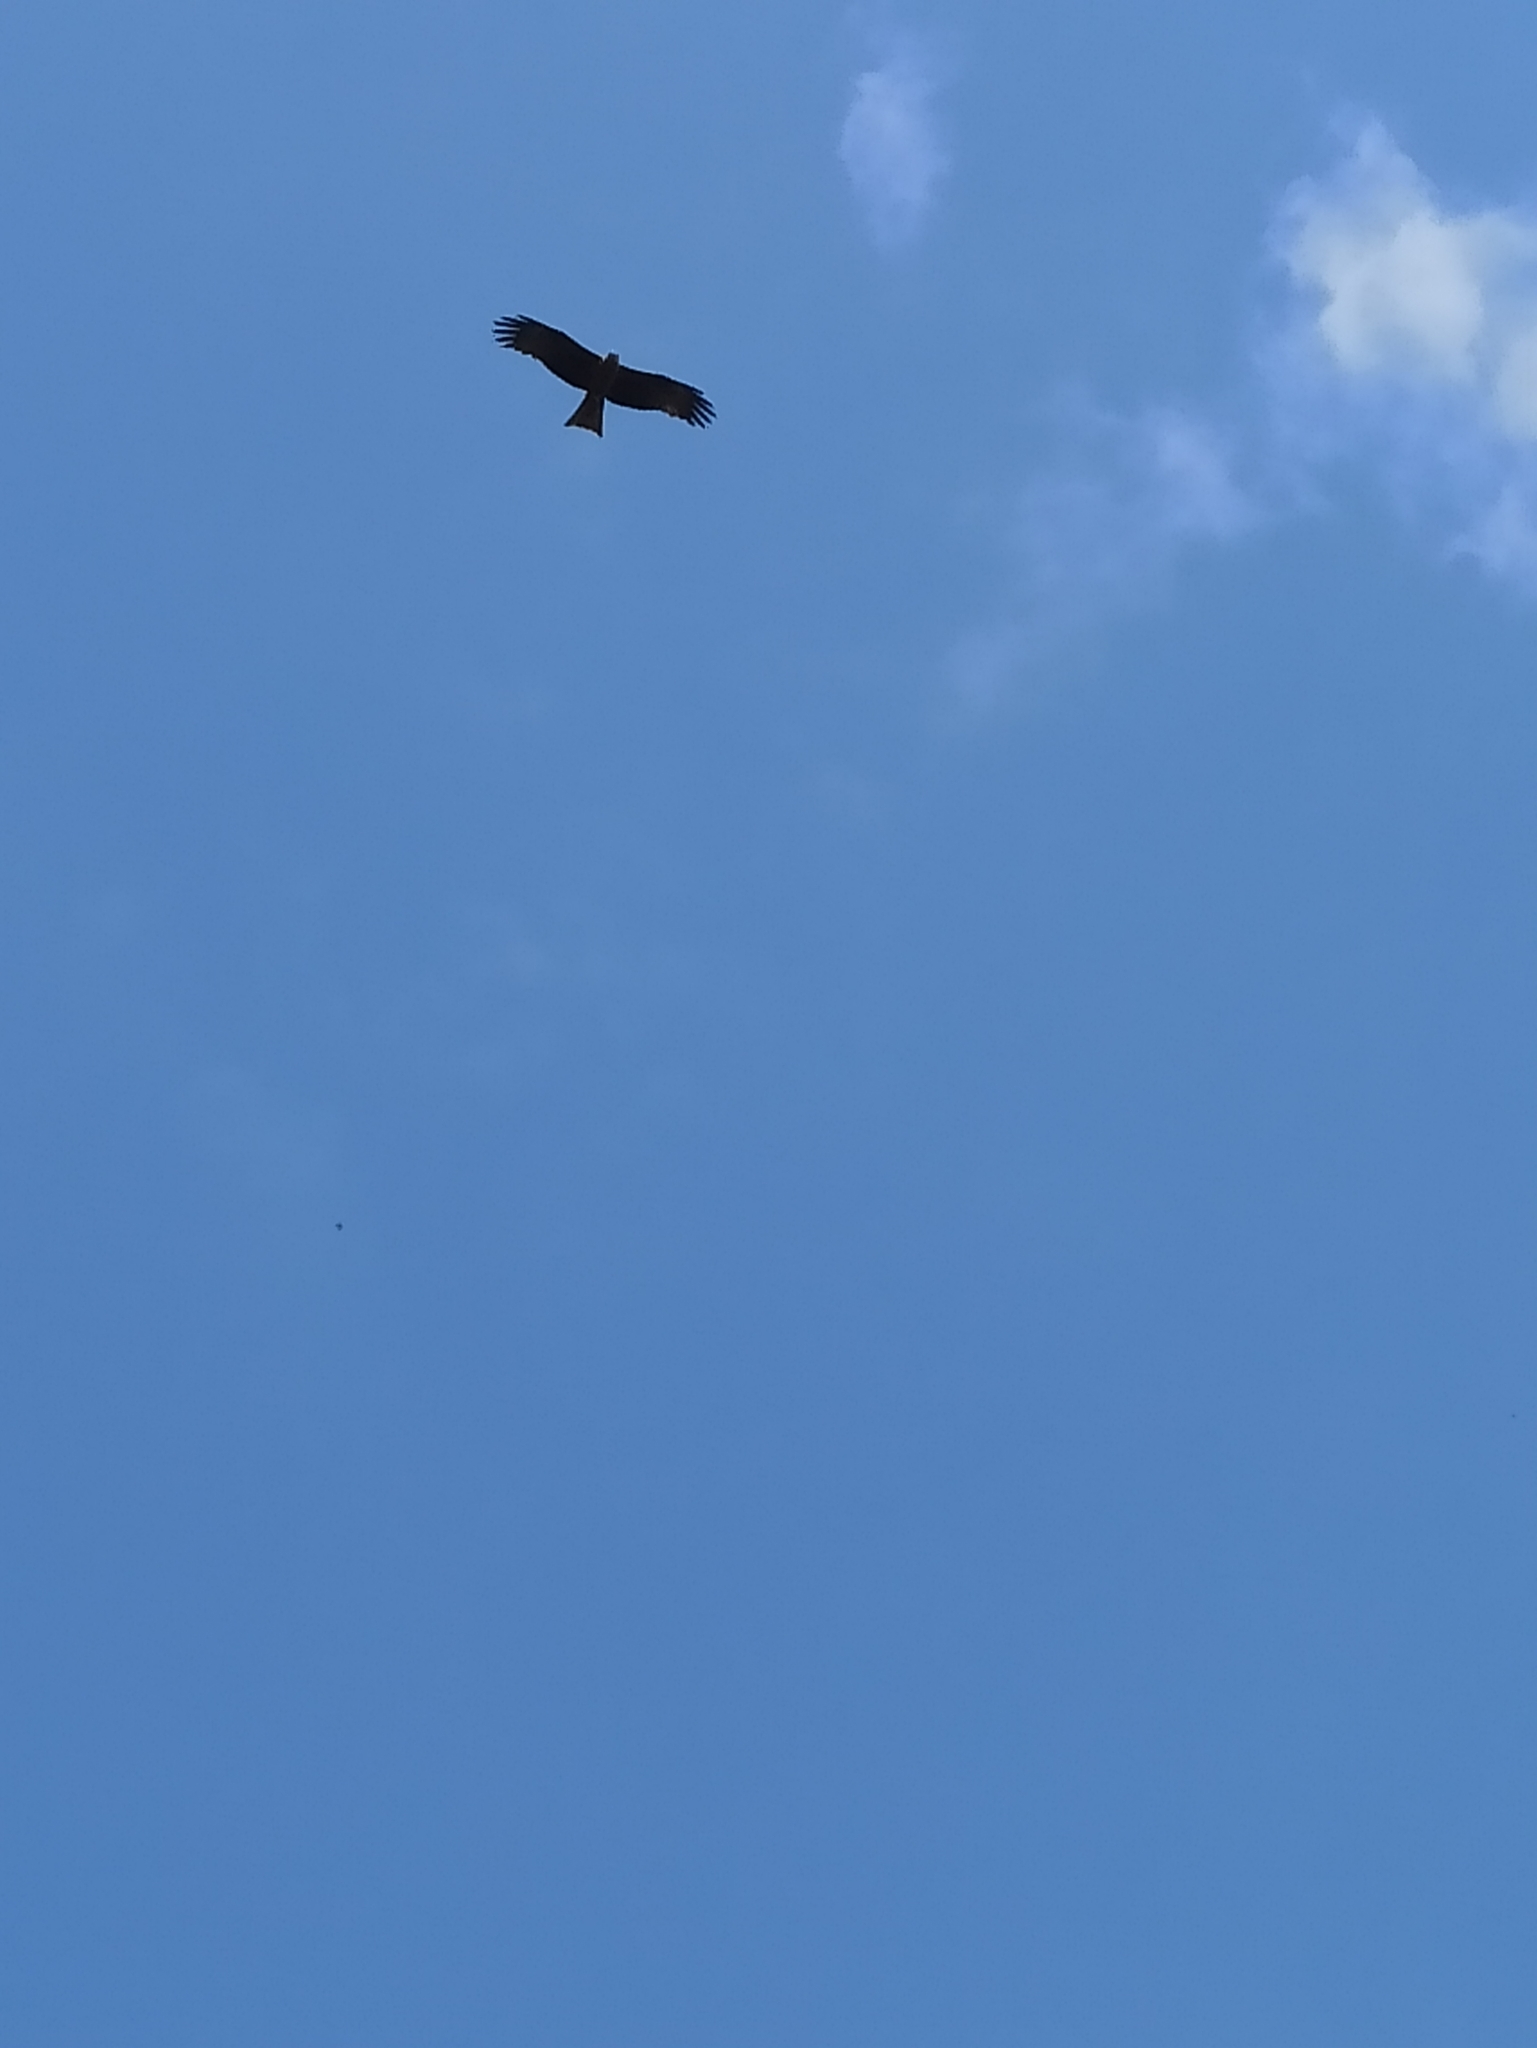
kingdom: Animalia
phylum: Chordata
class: Aves
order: Accipitriformes
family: Accipitridae
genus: Milvus
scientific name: Milvus migrans
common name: Black kite
